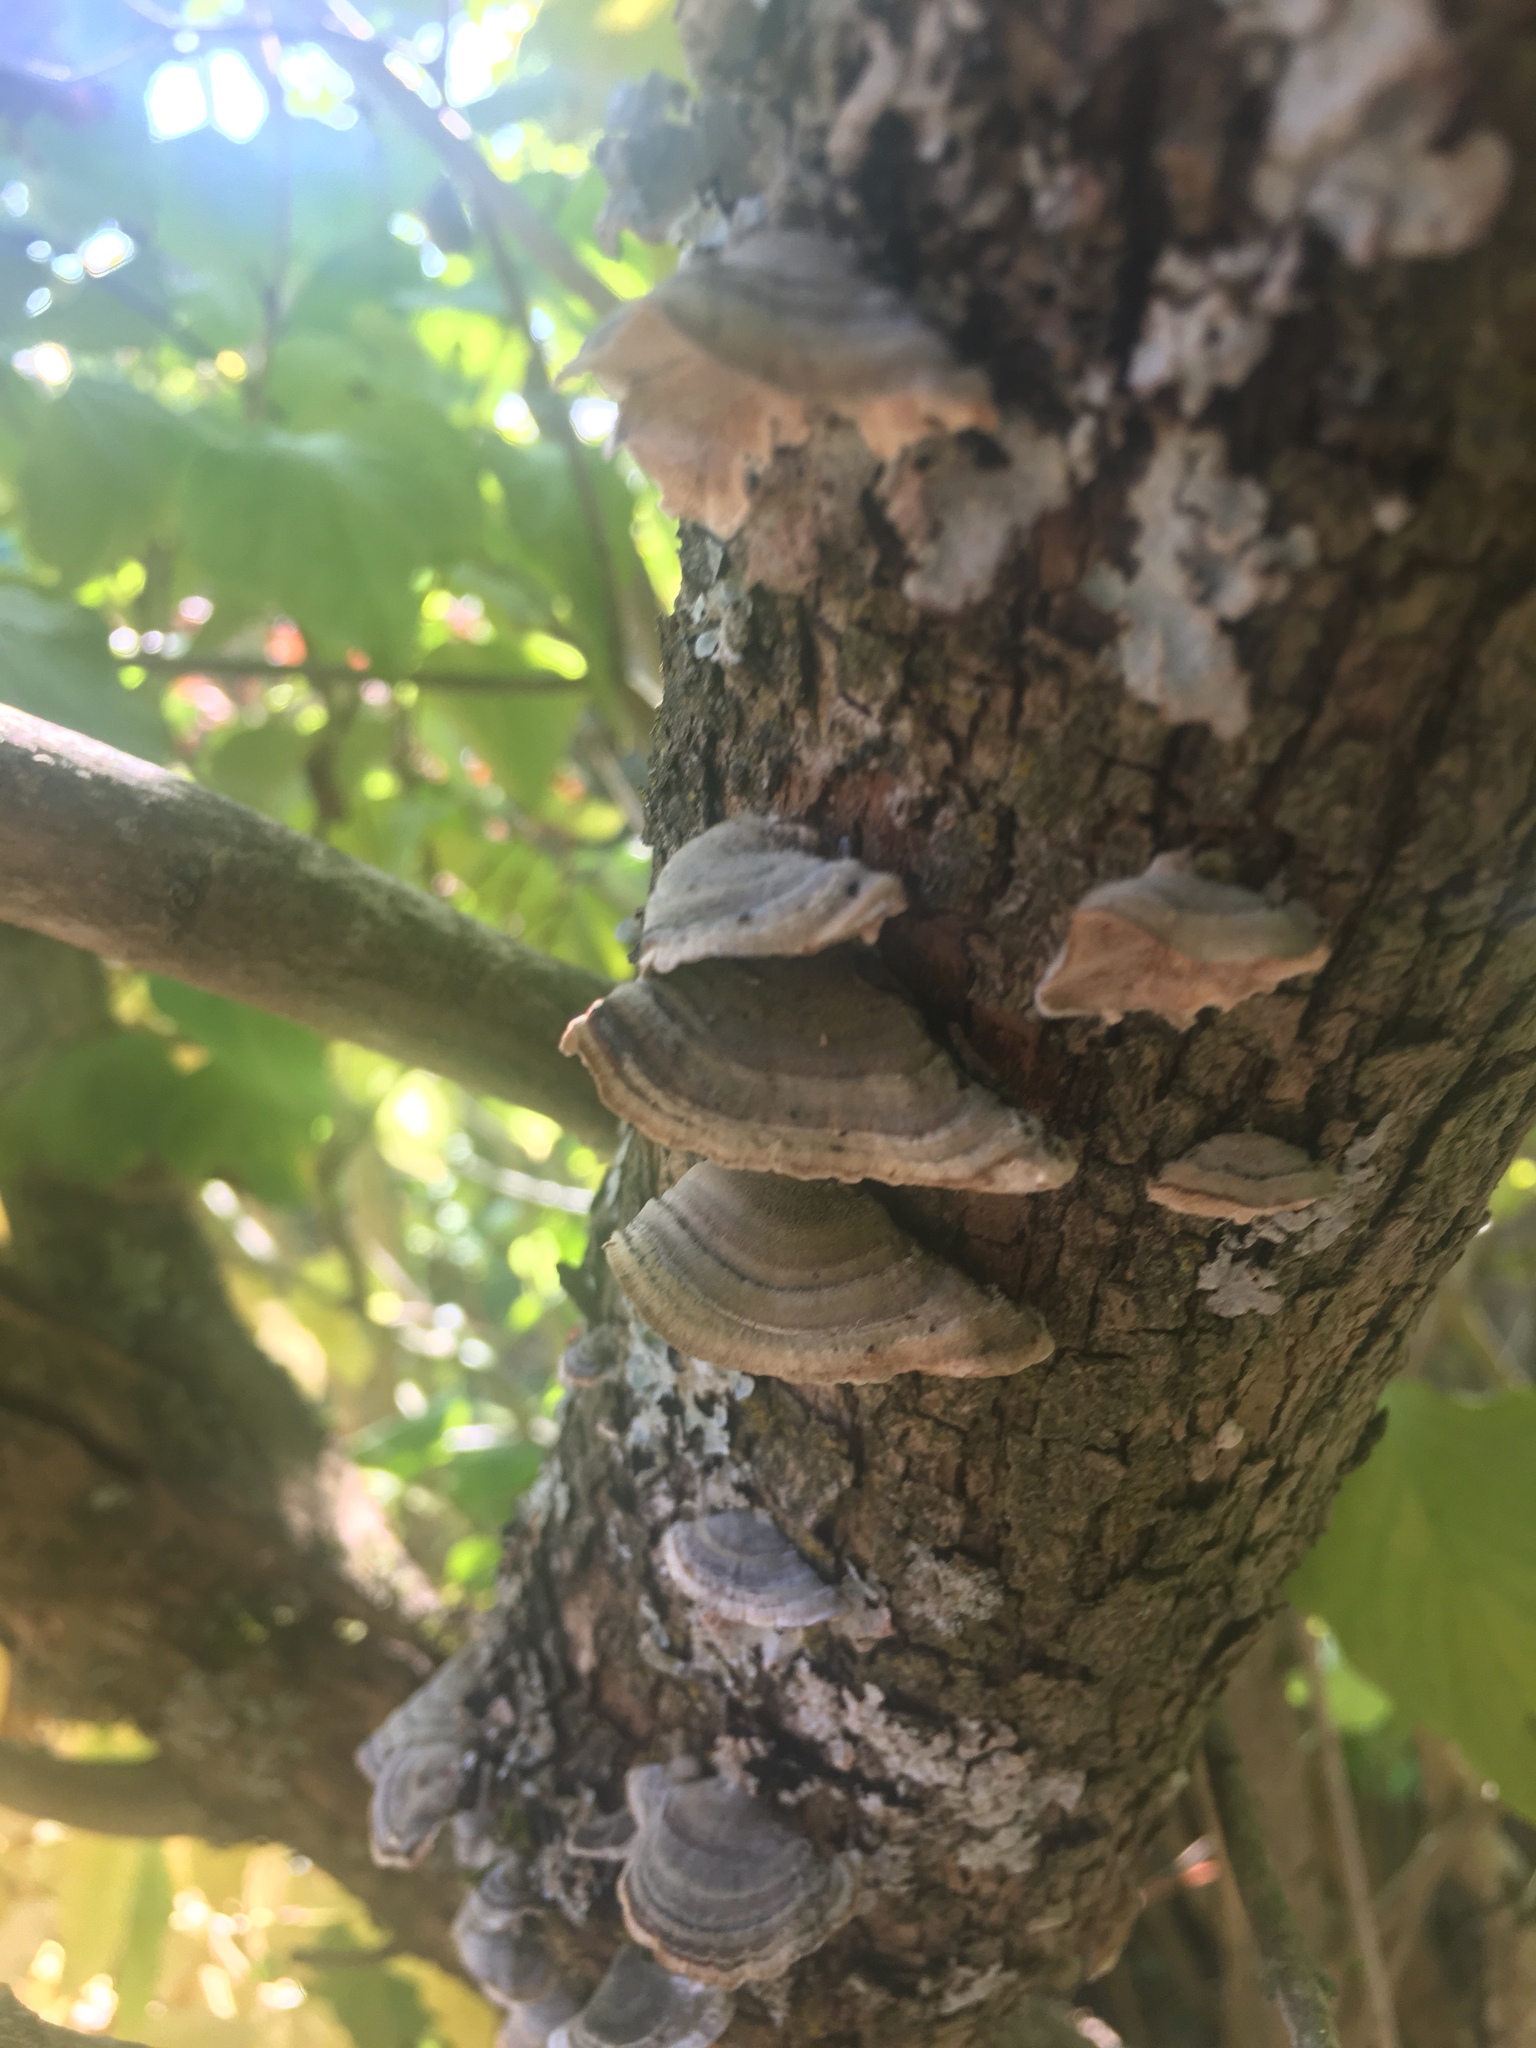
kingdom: Fungi
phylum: Basidiomycota
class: Agaricomycetes
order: Polyporales
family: Polyporaceae
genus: Trametes
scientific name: Trametes versicolor
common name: Turkeytail
